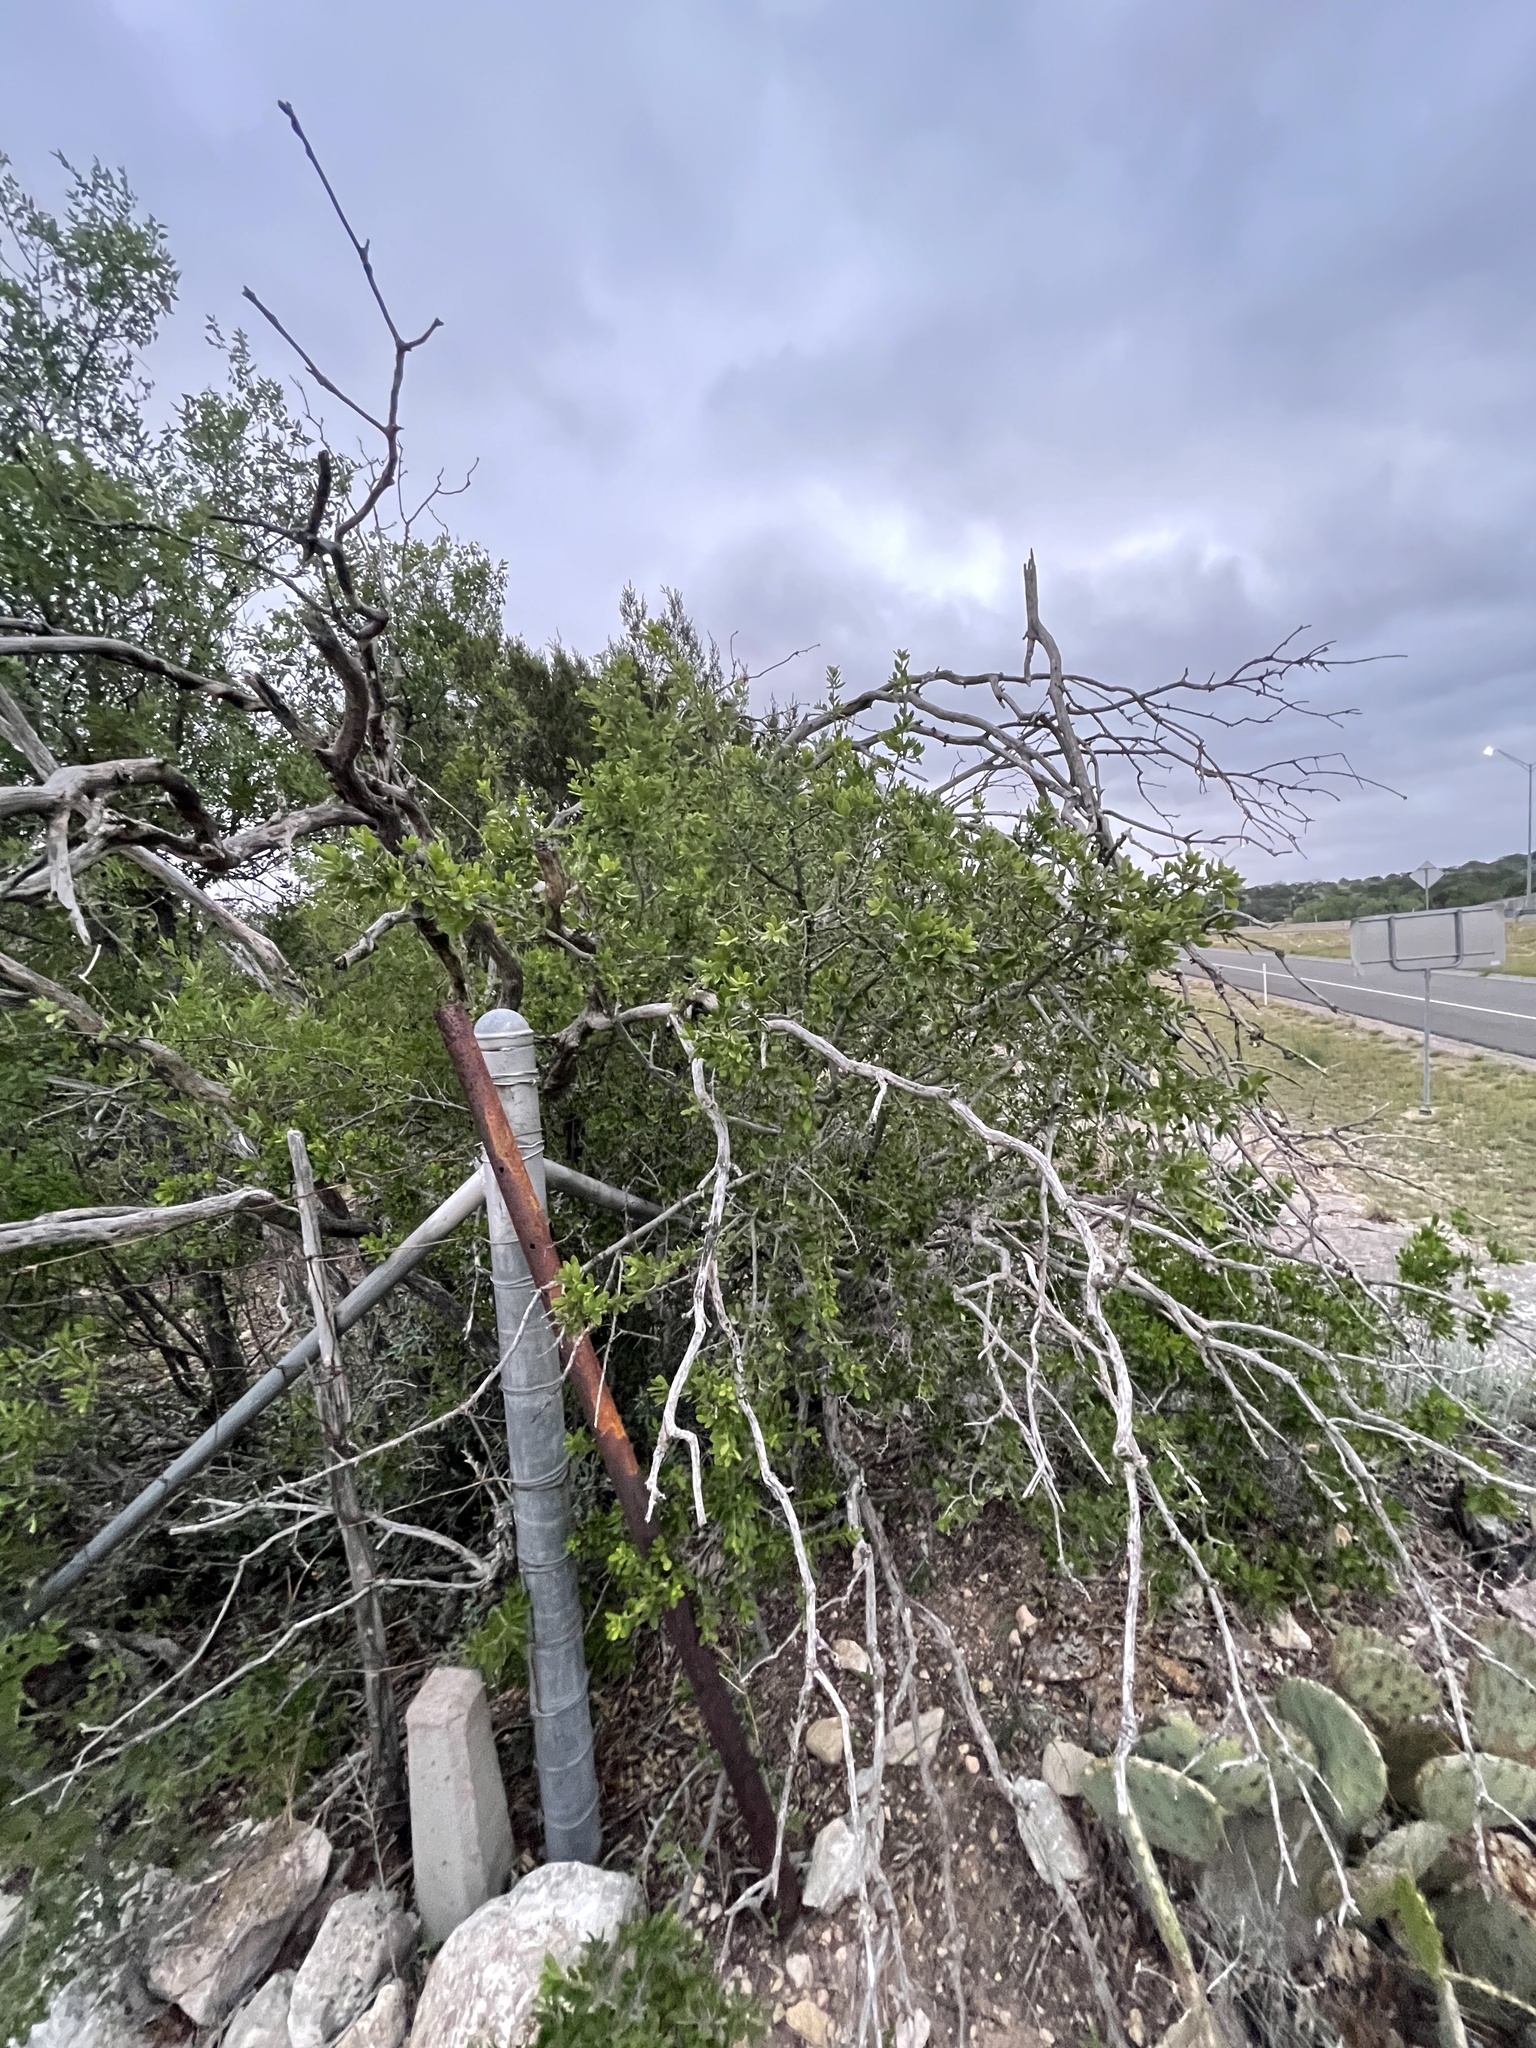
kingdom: Plantae
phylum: Tracheophyta
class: Magnoliopsida
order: Ericales
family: Ebenaceae
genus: Diospyros
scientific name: Diospyros texana
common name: Texas persimmon
